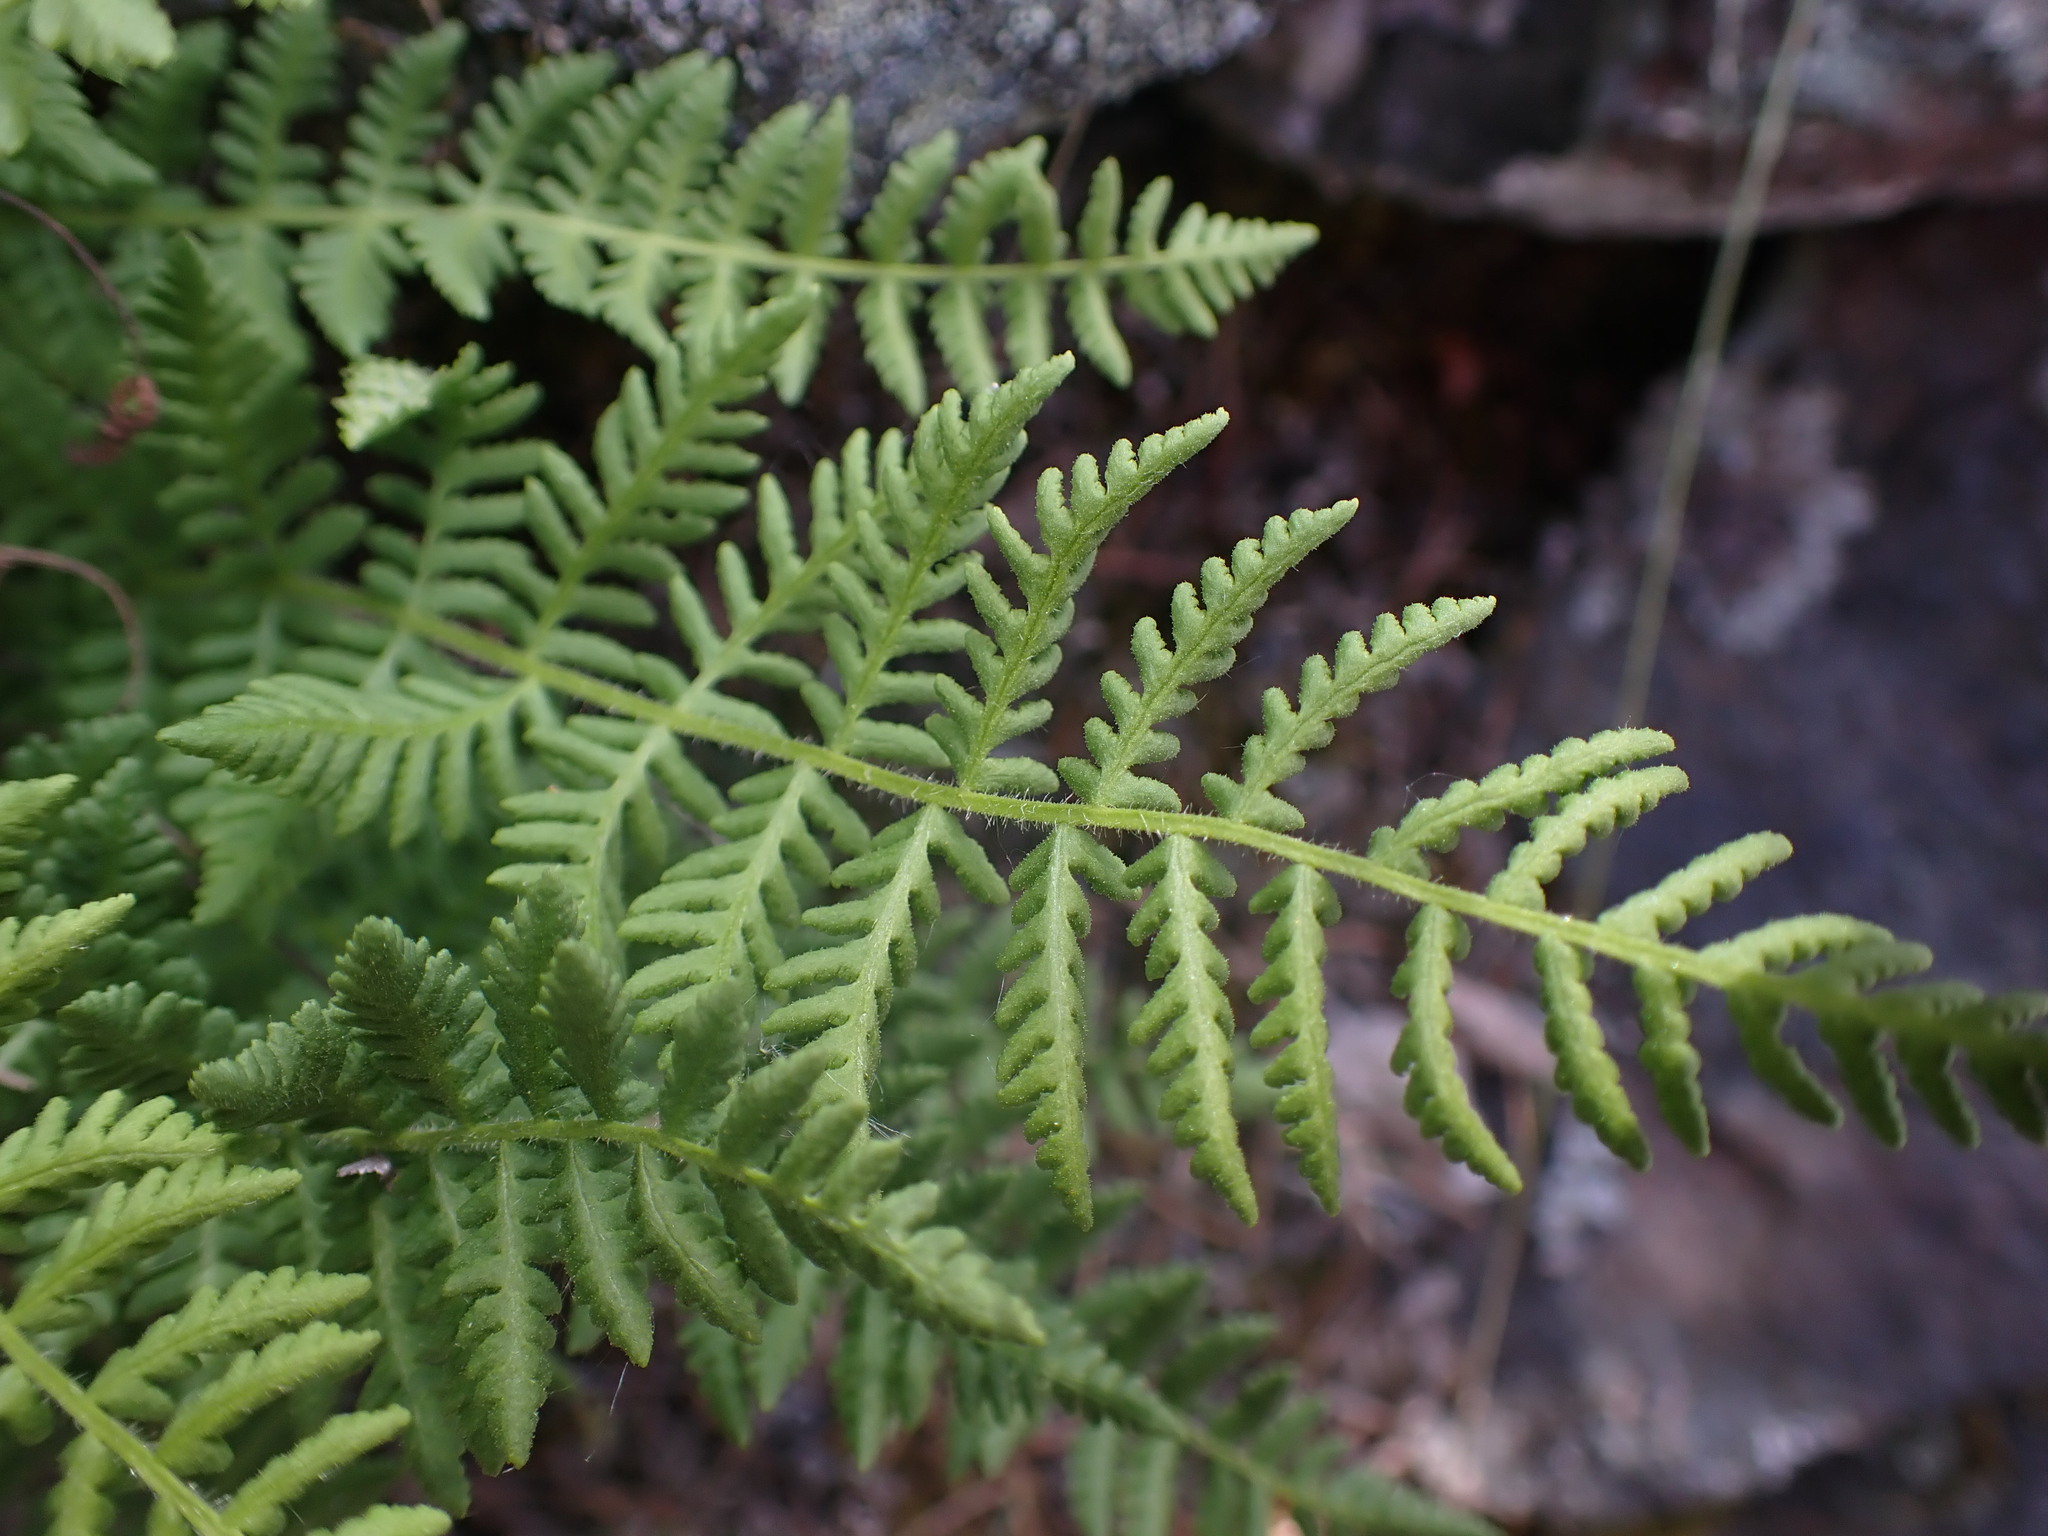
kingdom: Plantae
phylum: Tracheophyta
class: Polypodiopsida
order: Polypodiales
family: Woodsiaceae
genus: Physematium
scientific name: Physematium scopulinum
